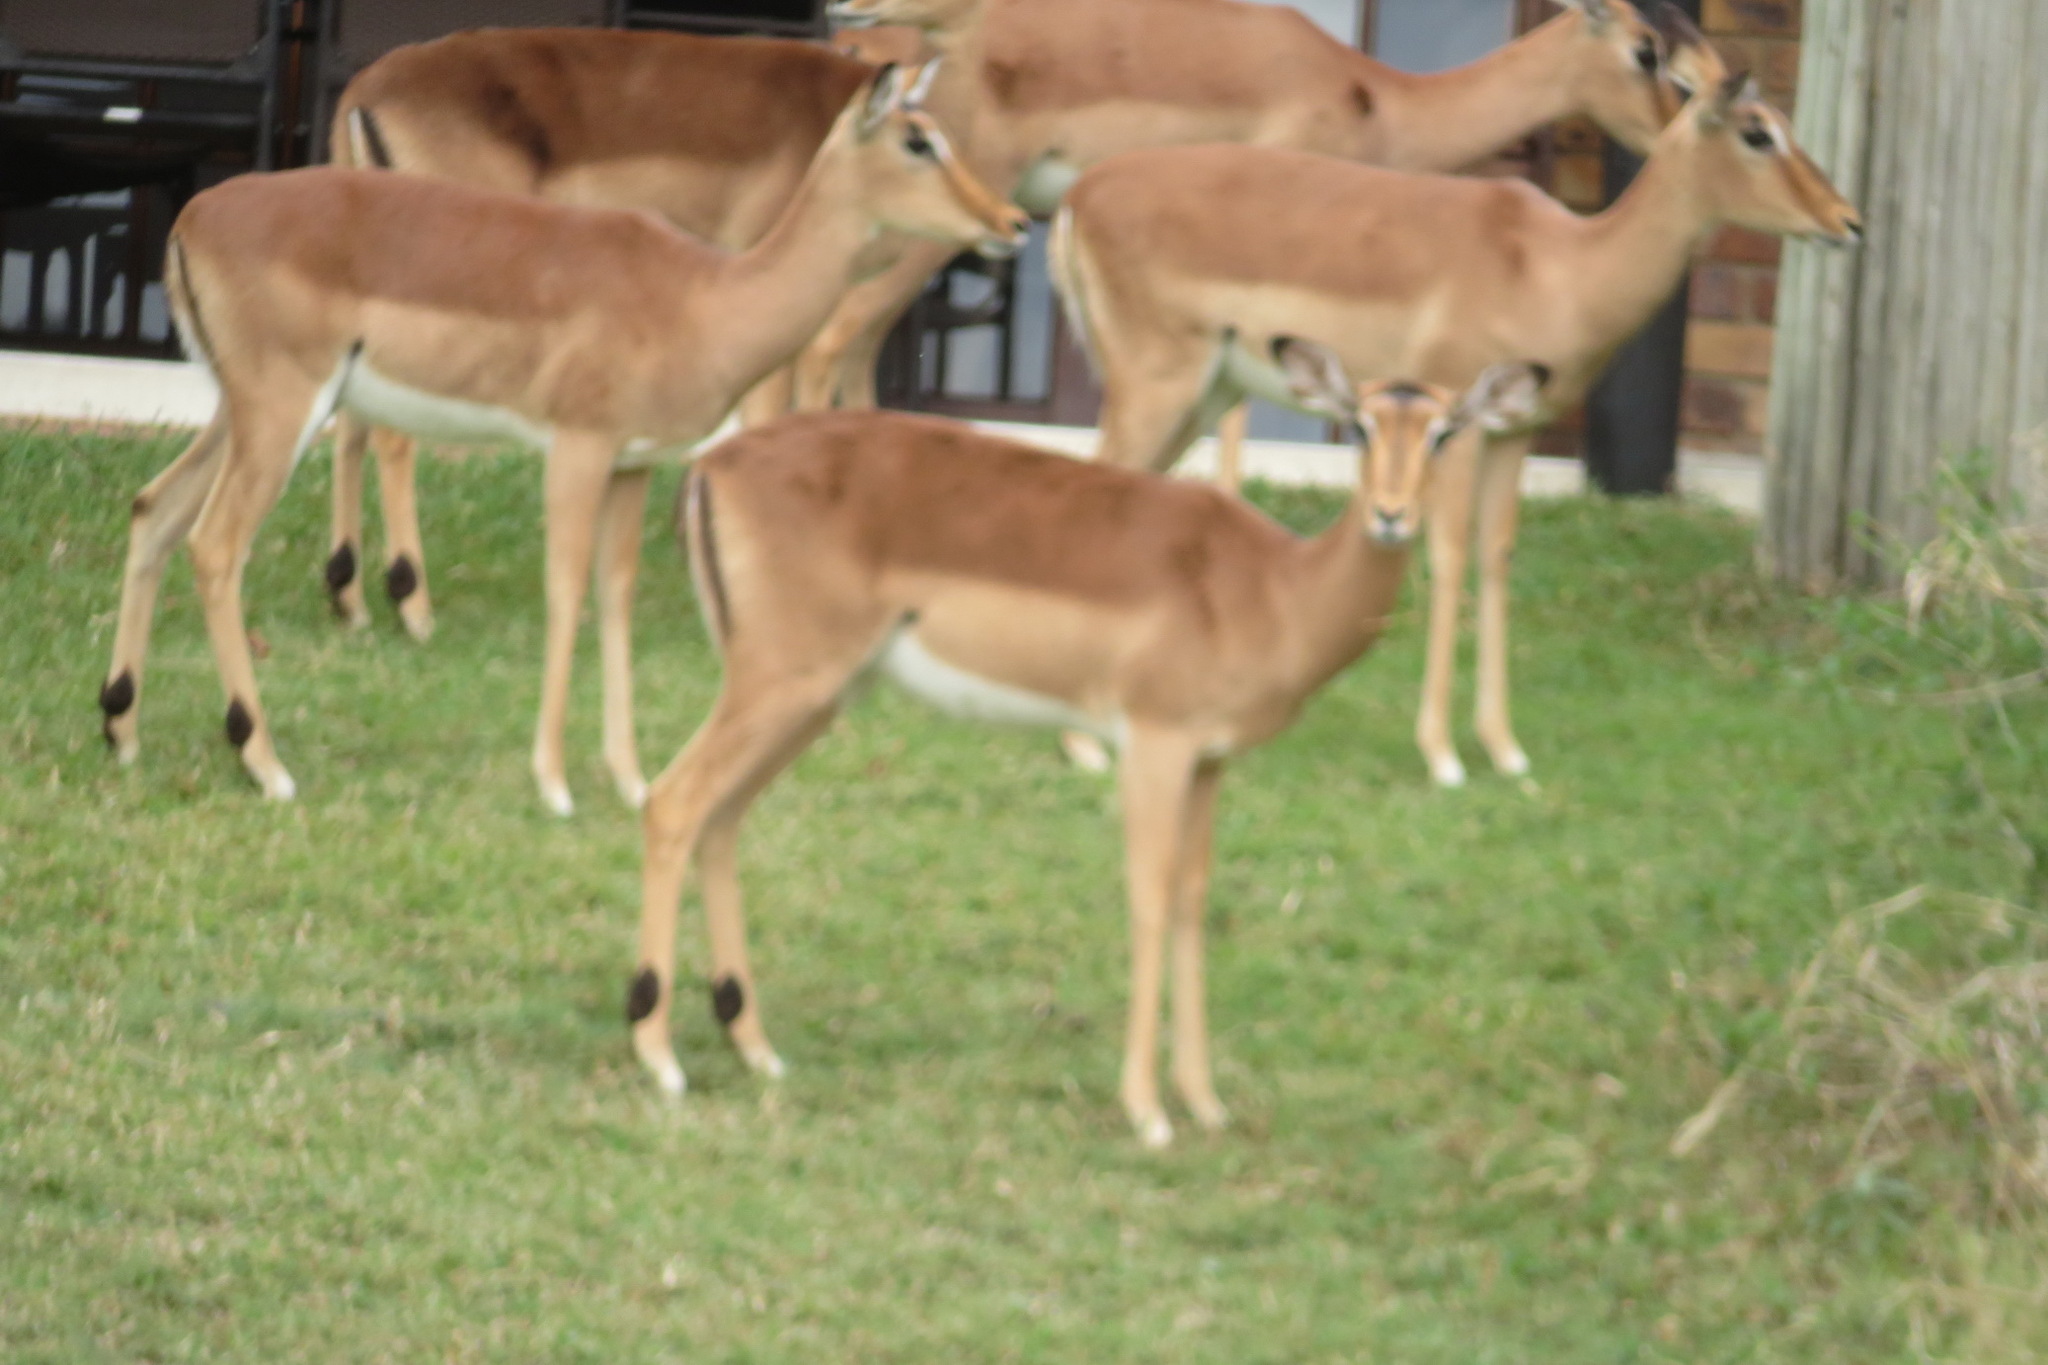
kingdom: Animalia
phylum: Chordata
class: Mammalia
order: Artiodactyla
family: Bovidae
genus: Aepyceros
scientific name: Aepyceros melampus
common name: Impala
